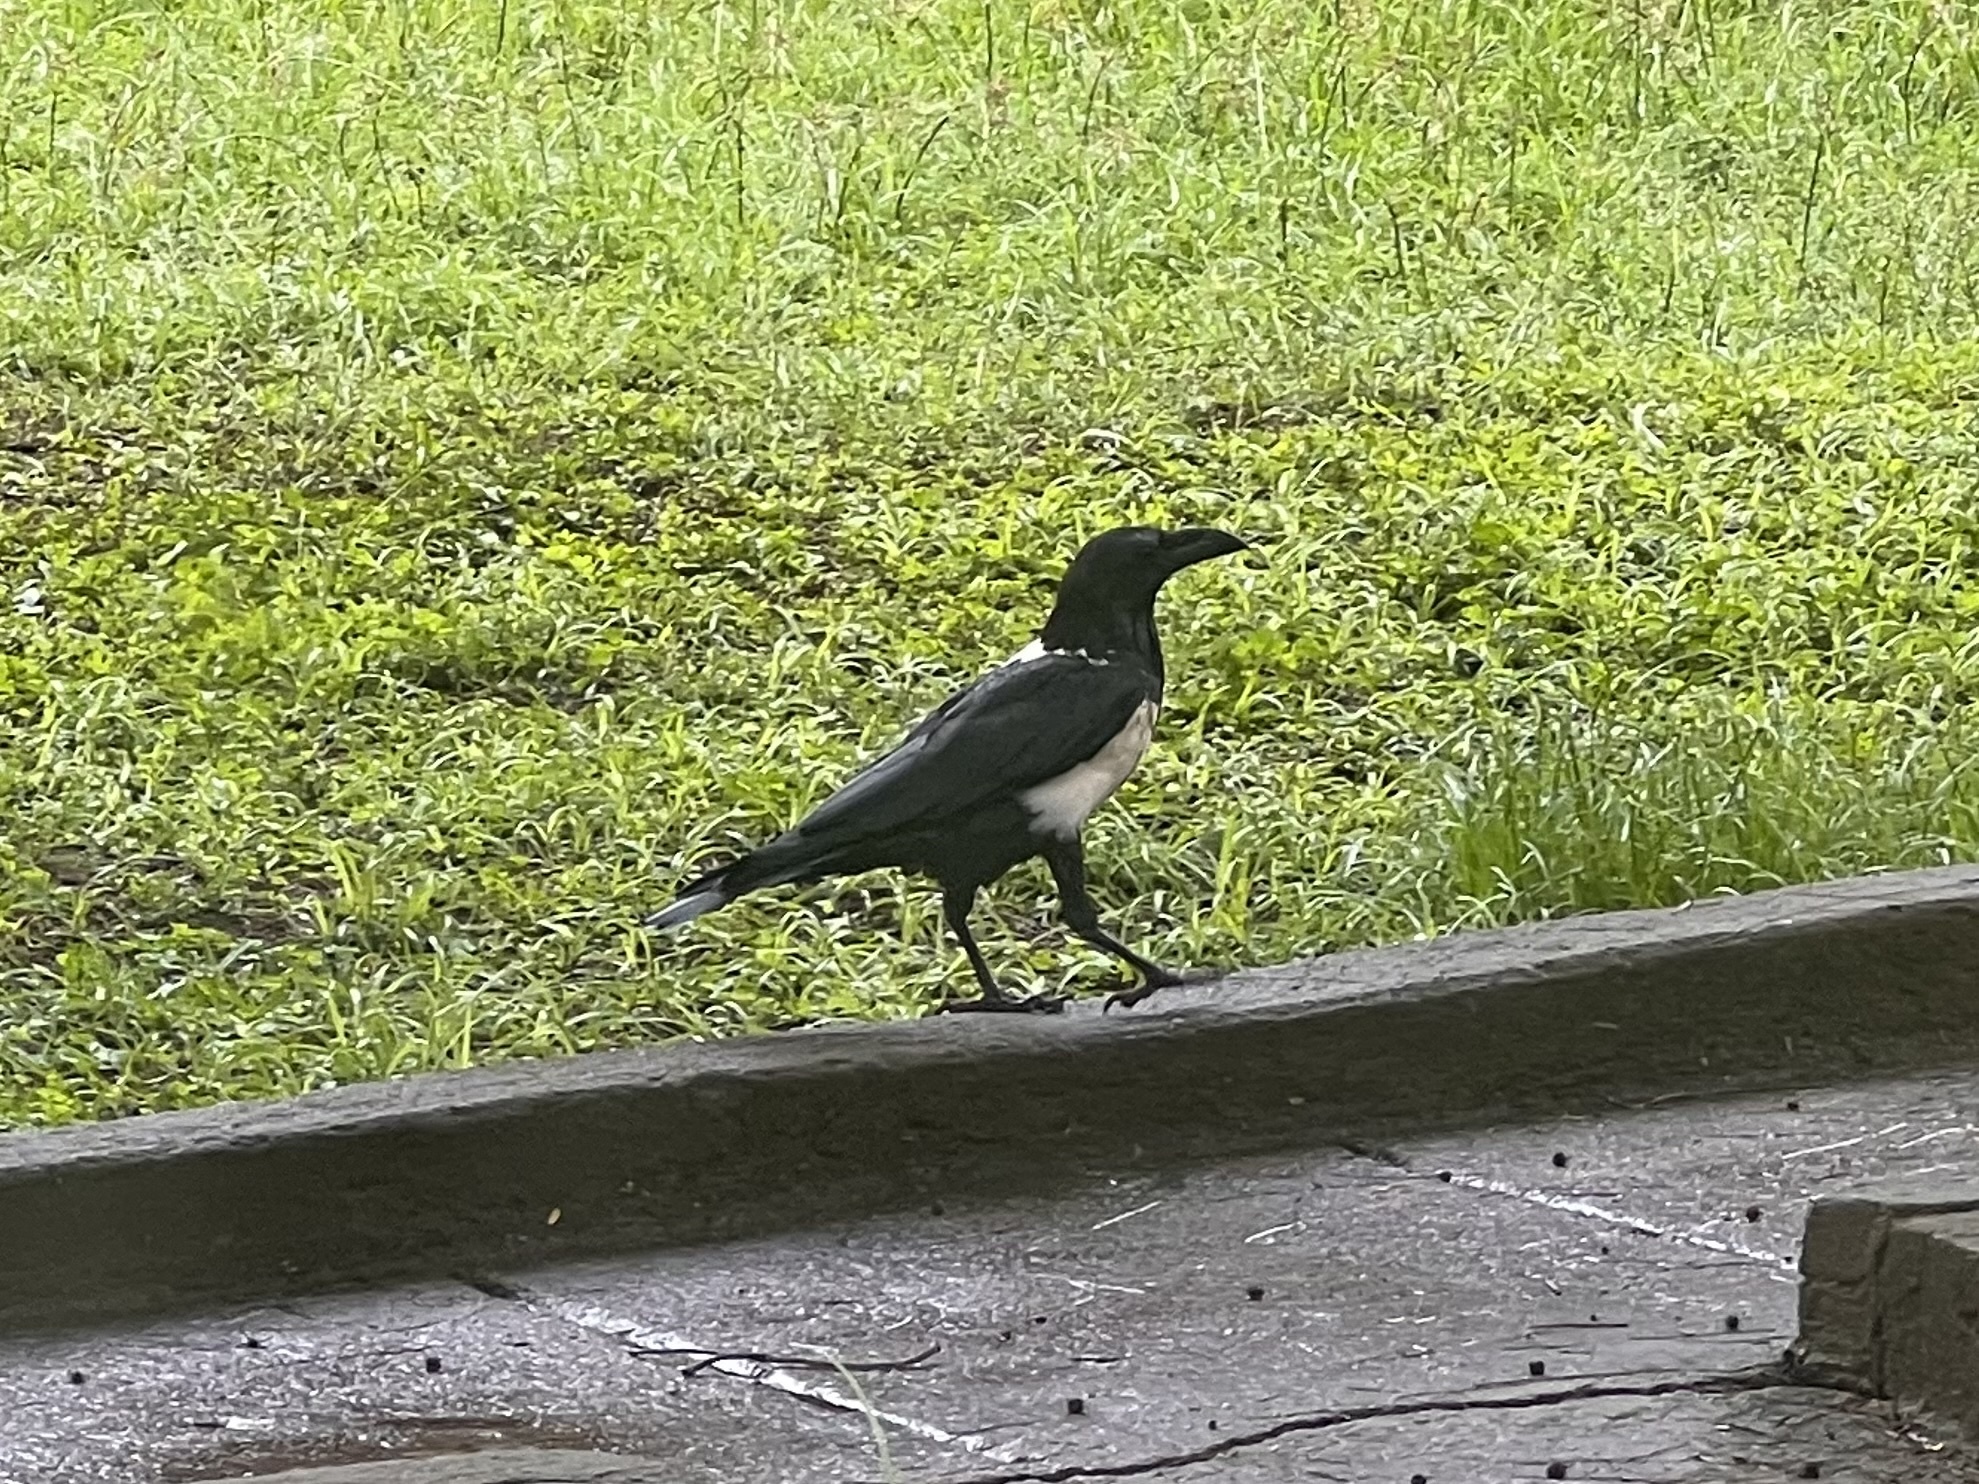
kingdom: Animalia
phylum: Chordata
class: Aves
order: Passeriformes
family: Corvidae
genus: Corvus
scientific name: Corvus albus
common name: Pied crow
